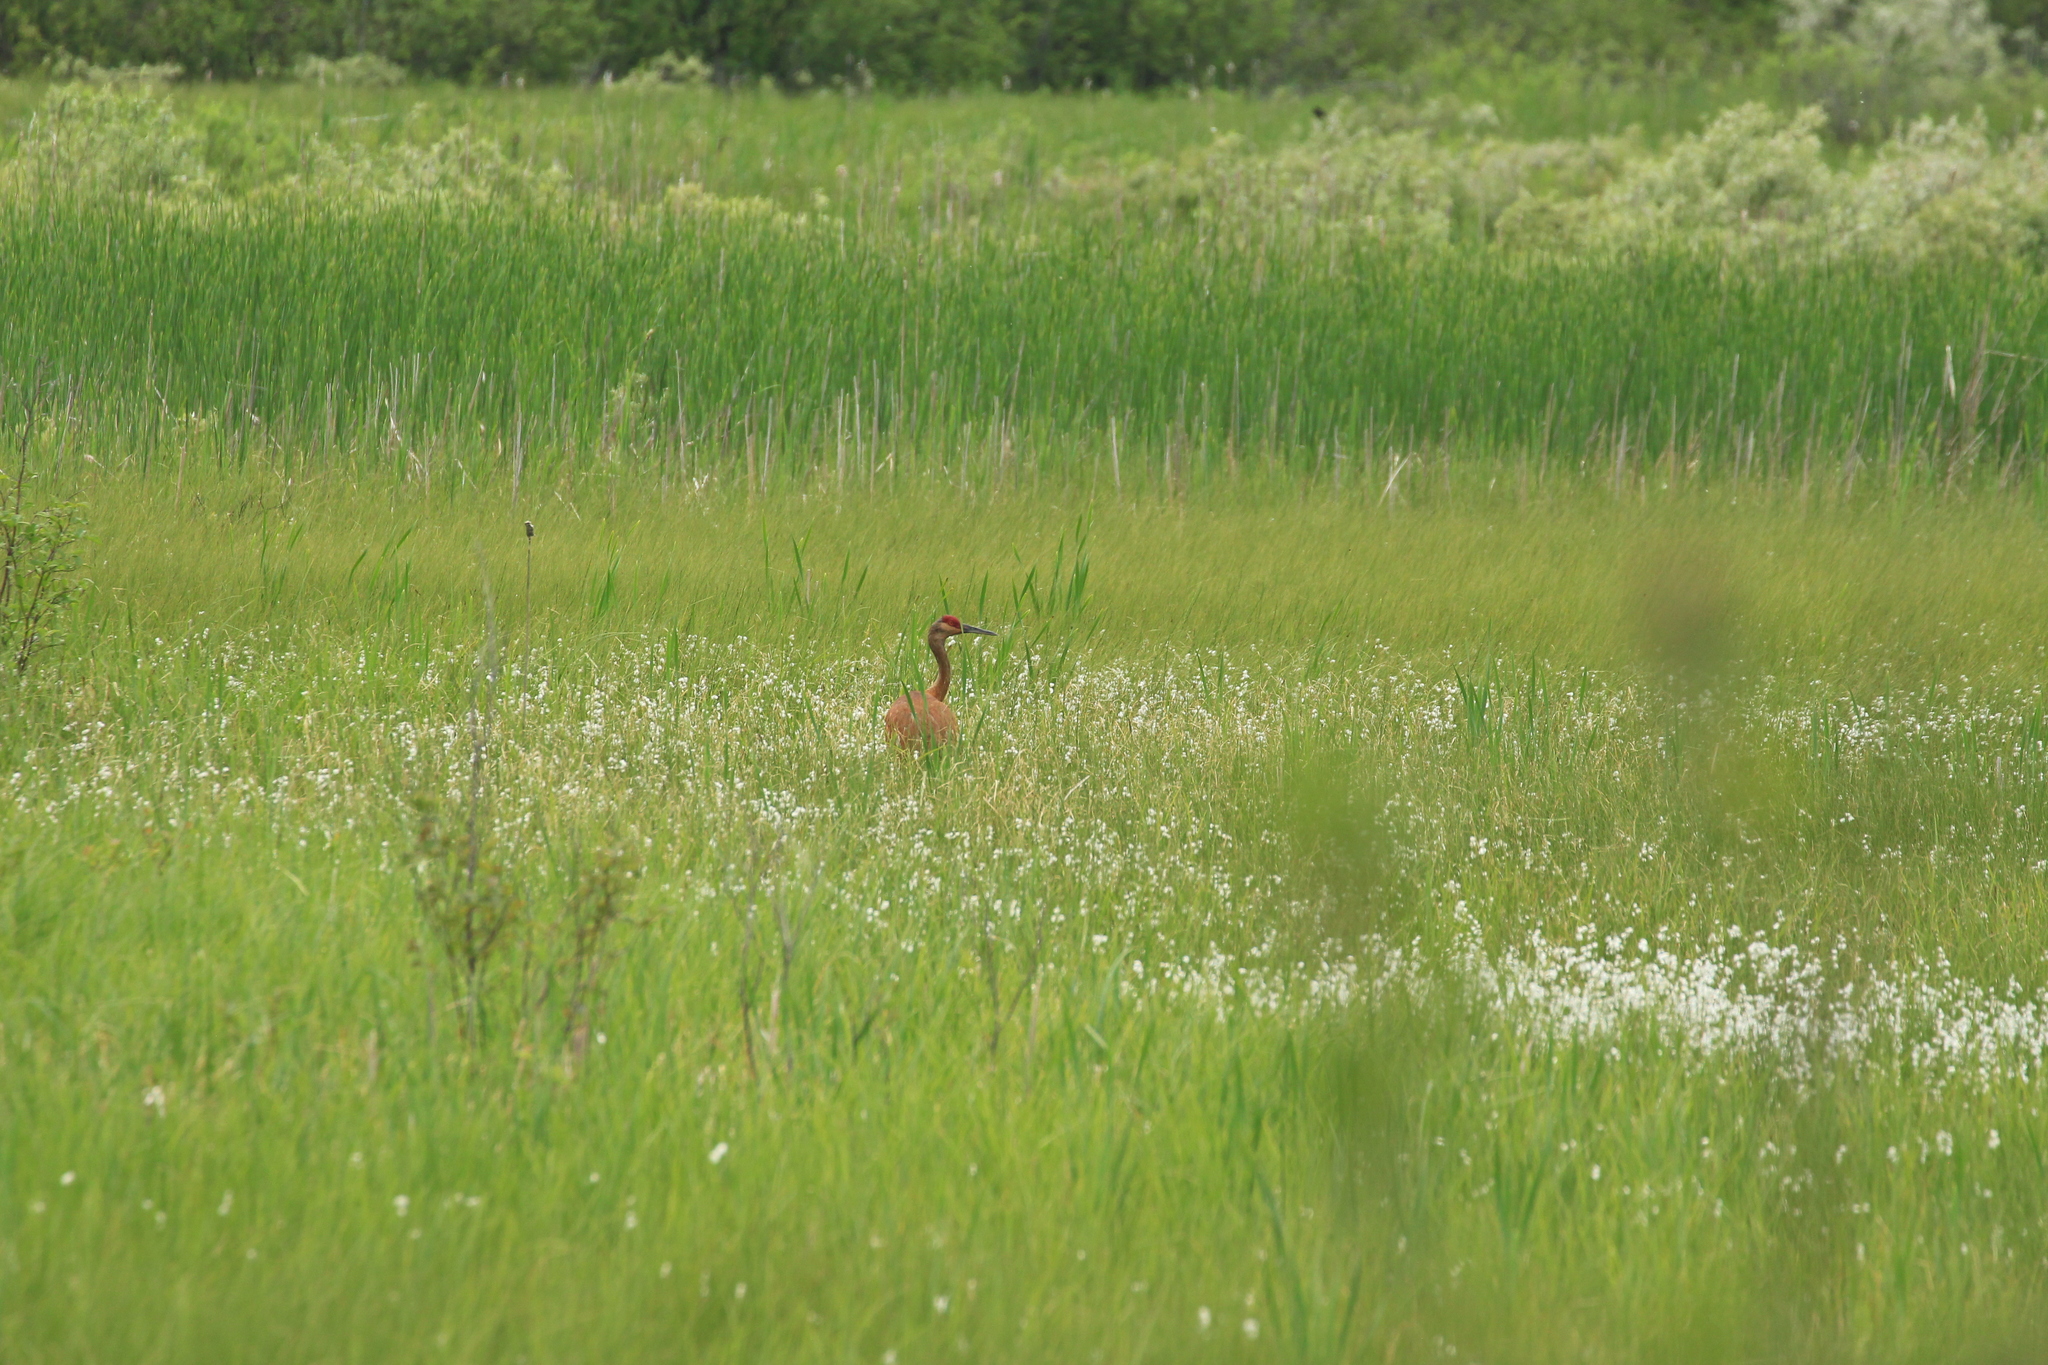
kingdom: Animalia
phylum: Chordata
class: Aves
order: Gruiformes
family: Gruidae
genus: Grus
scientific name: Grus canadensis
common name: Sandhill crane
